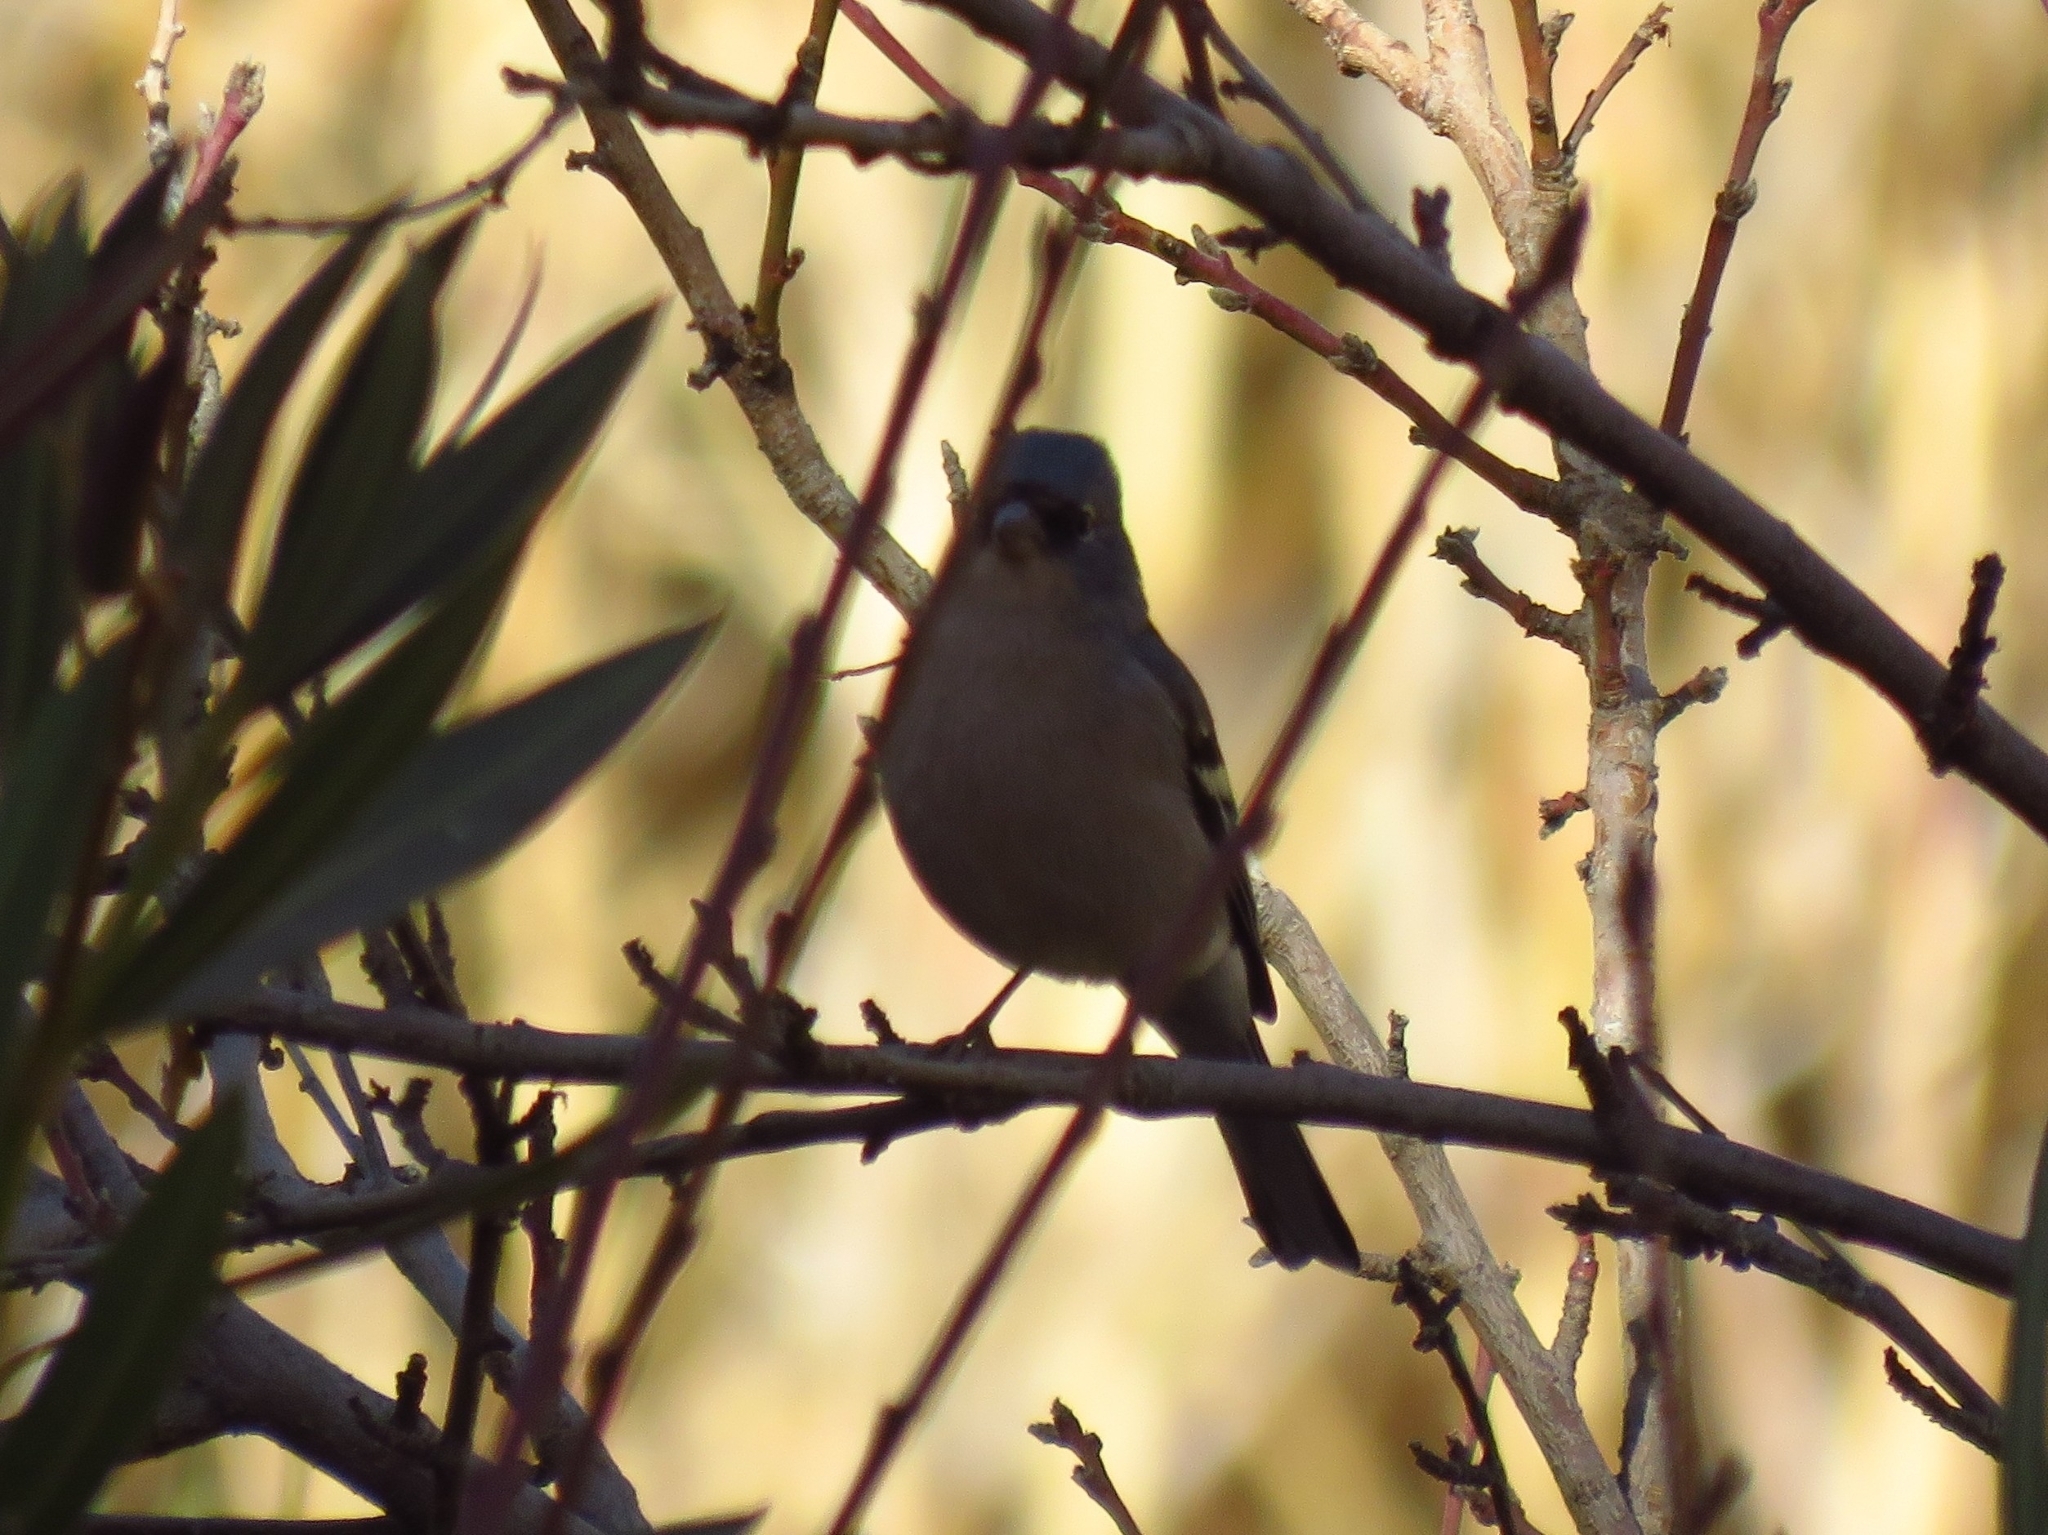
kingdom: Animalia
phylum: Chordata
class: Aves
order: Passeriformes
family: Fringillidae
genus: Fringilla
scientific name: Fringilla spodiogenys
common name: African chaffinch
